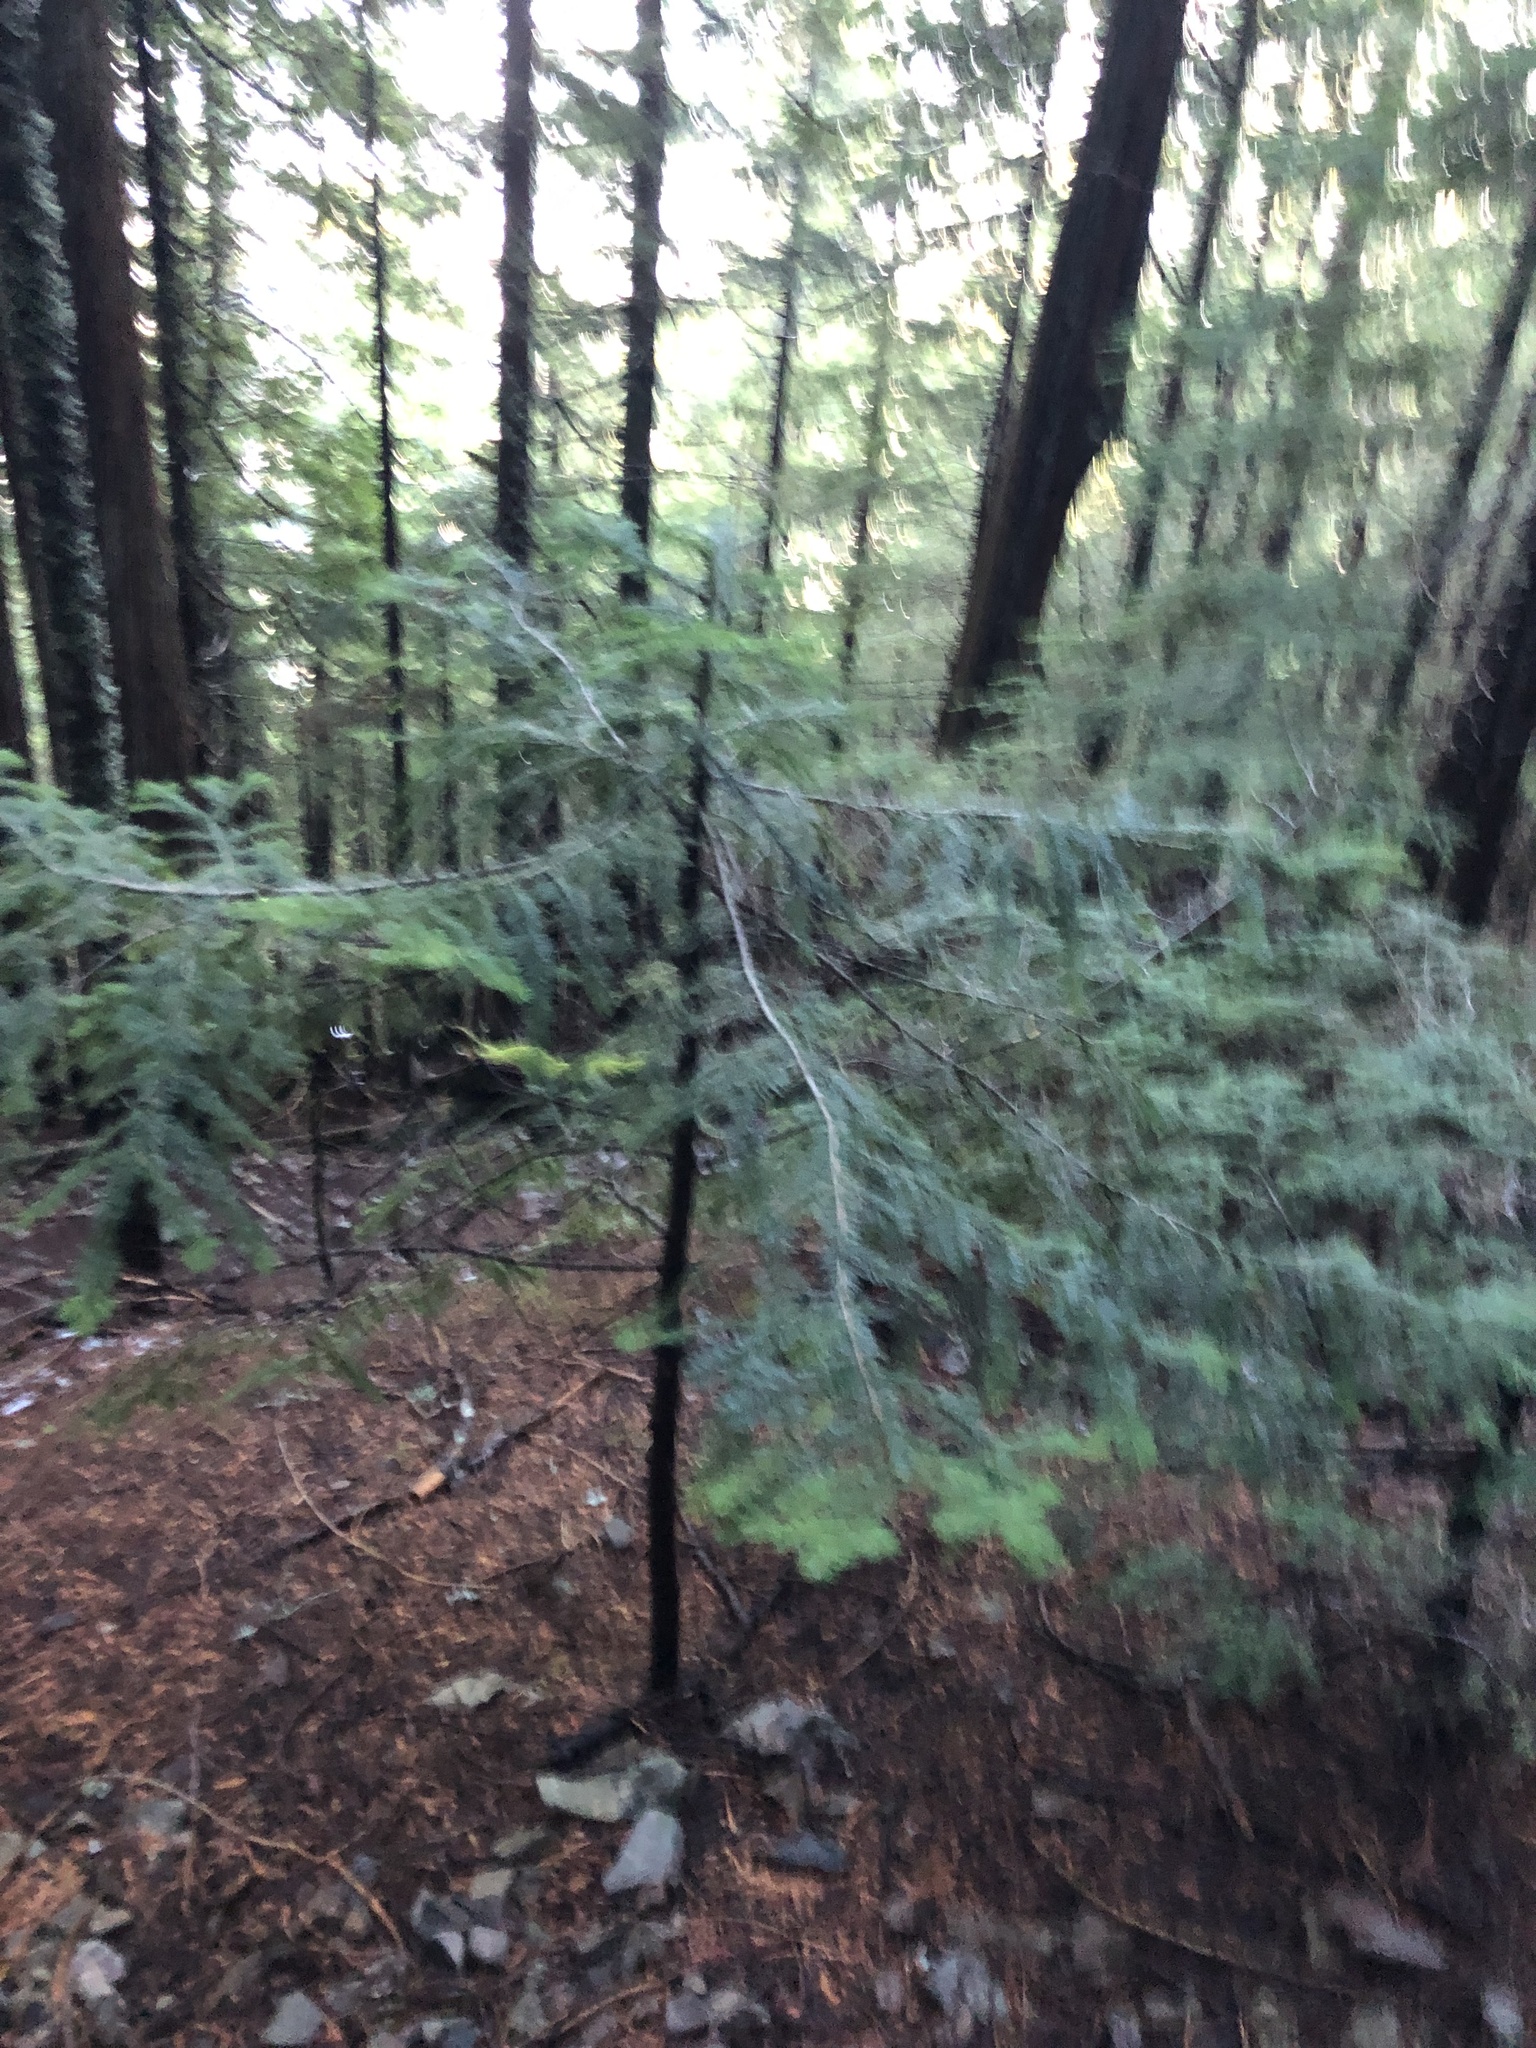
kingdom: Plantae
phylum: Tracheophyta
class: Pinopsida
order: Pinales
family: Pinaceae
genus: Abies
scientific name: Abies amabilis
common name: Pacific silver fir
